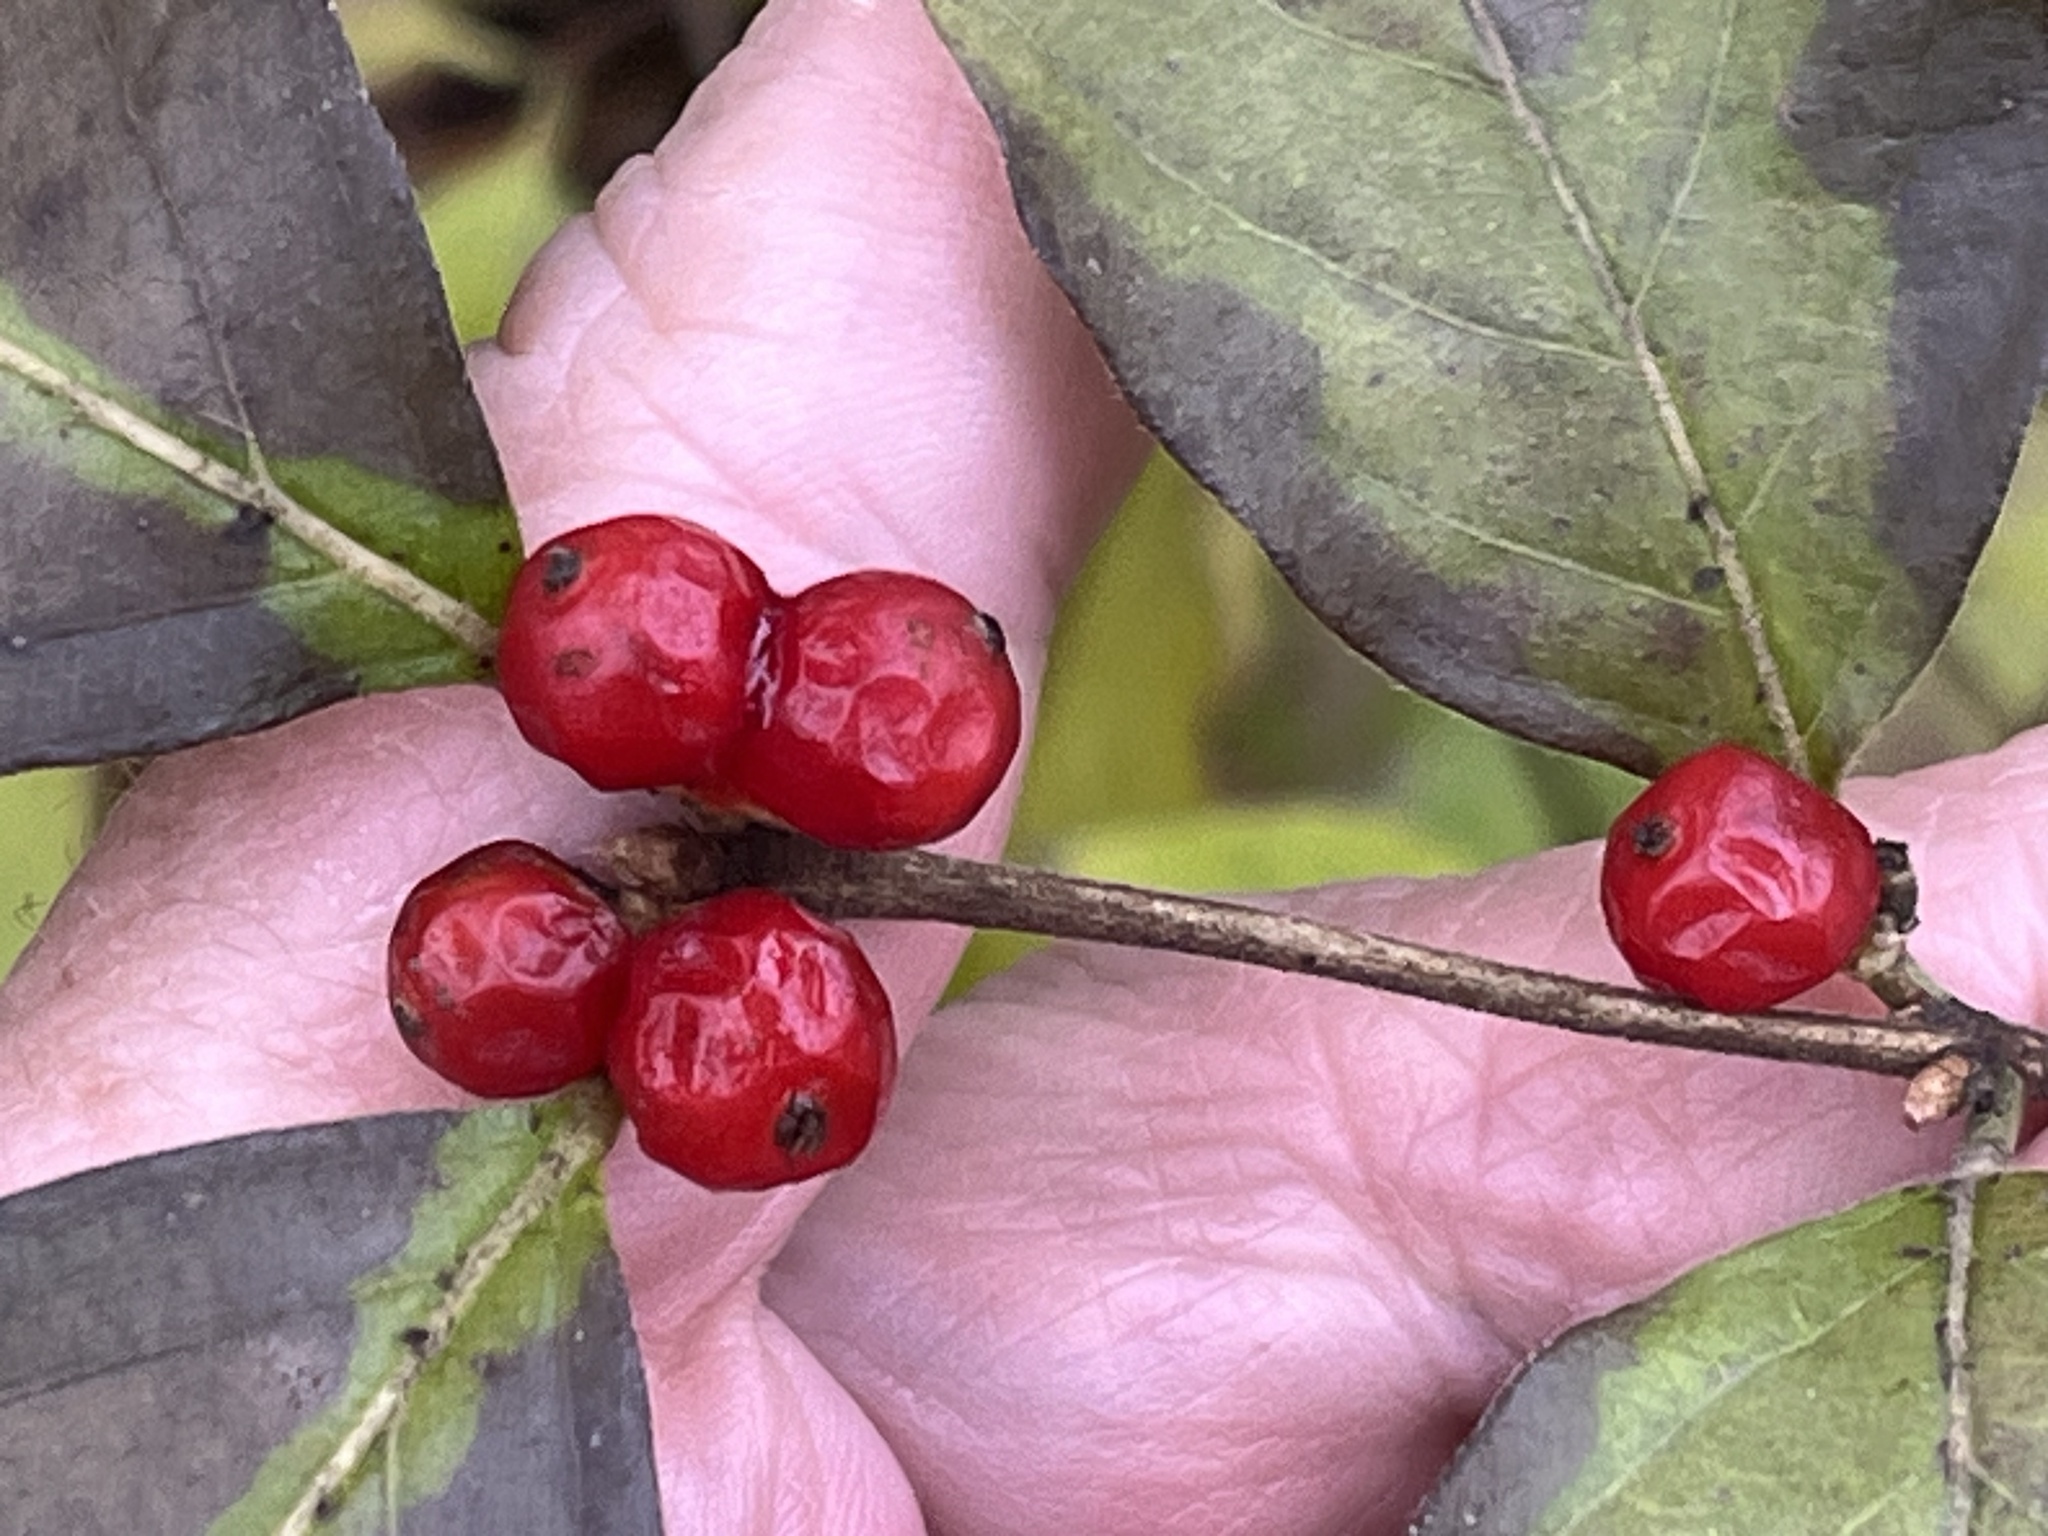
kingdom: Plantae
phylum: Tracheophyta
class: Magnoliopsida
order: Dipsacales
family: Caprifoliaceae
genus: Lonicera
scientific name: Lonicera maackii
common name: Amur honeysuckle
